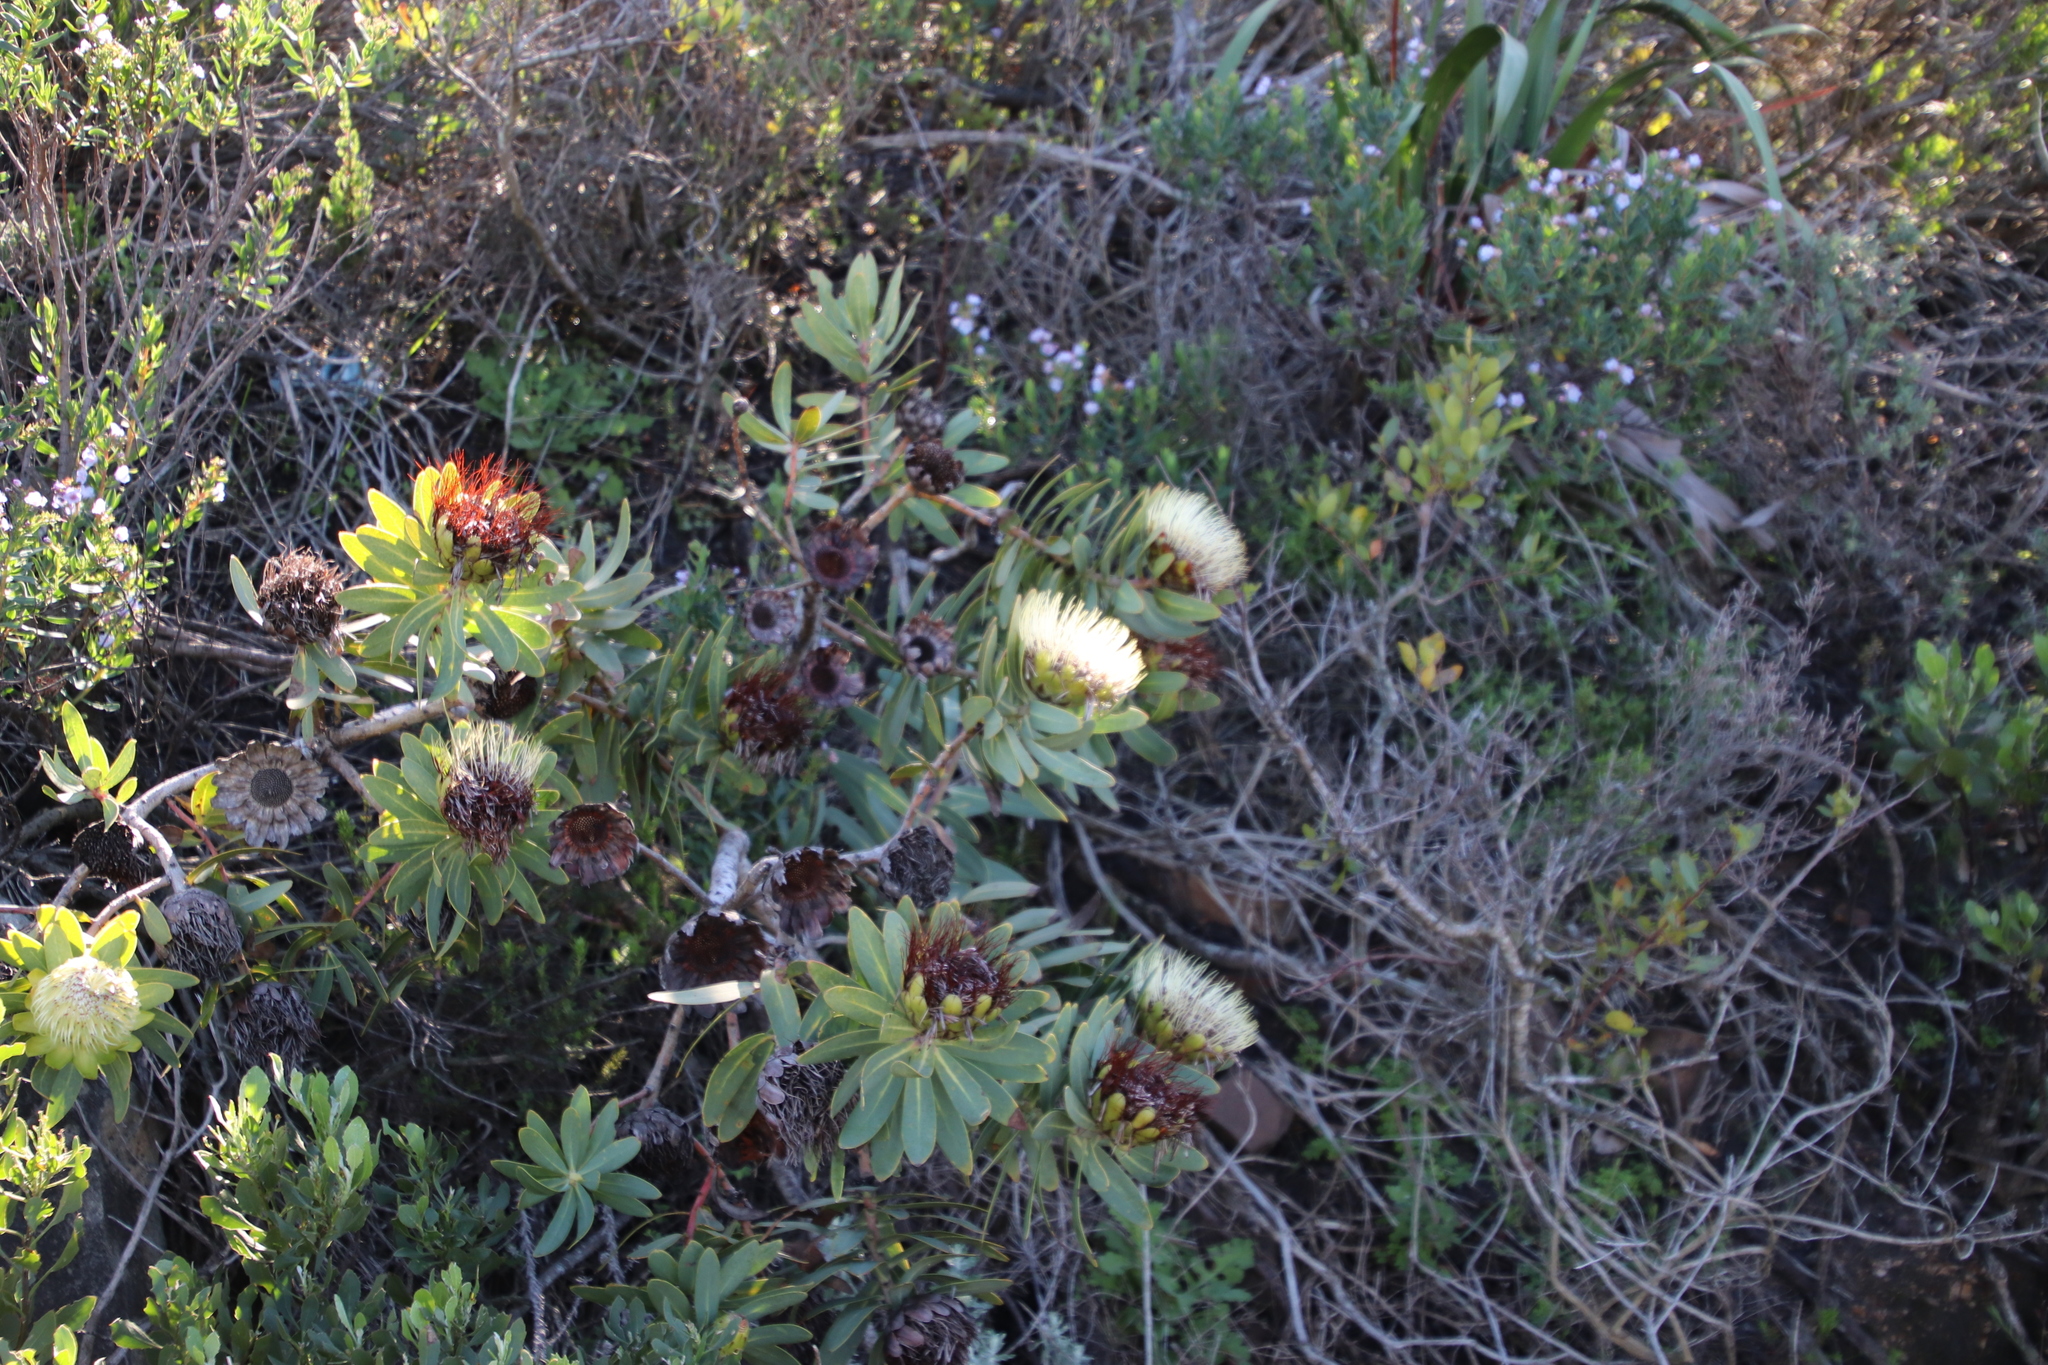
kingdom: Plantae
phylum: Tracheophyta
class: Magnoliopsida
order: Proteales
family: Proteaceae
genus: Protea
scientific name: Protea nitida
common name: Tree protea
